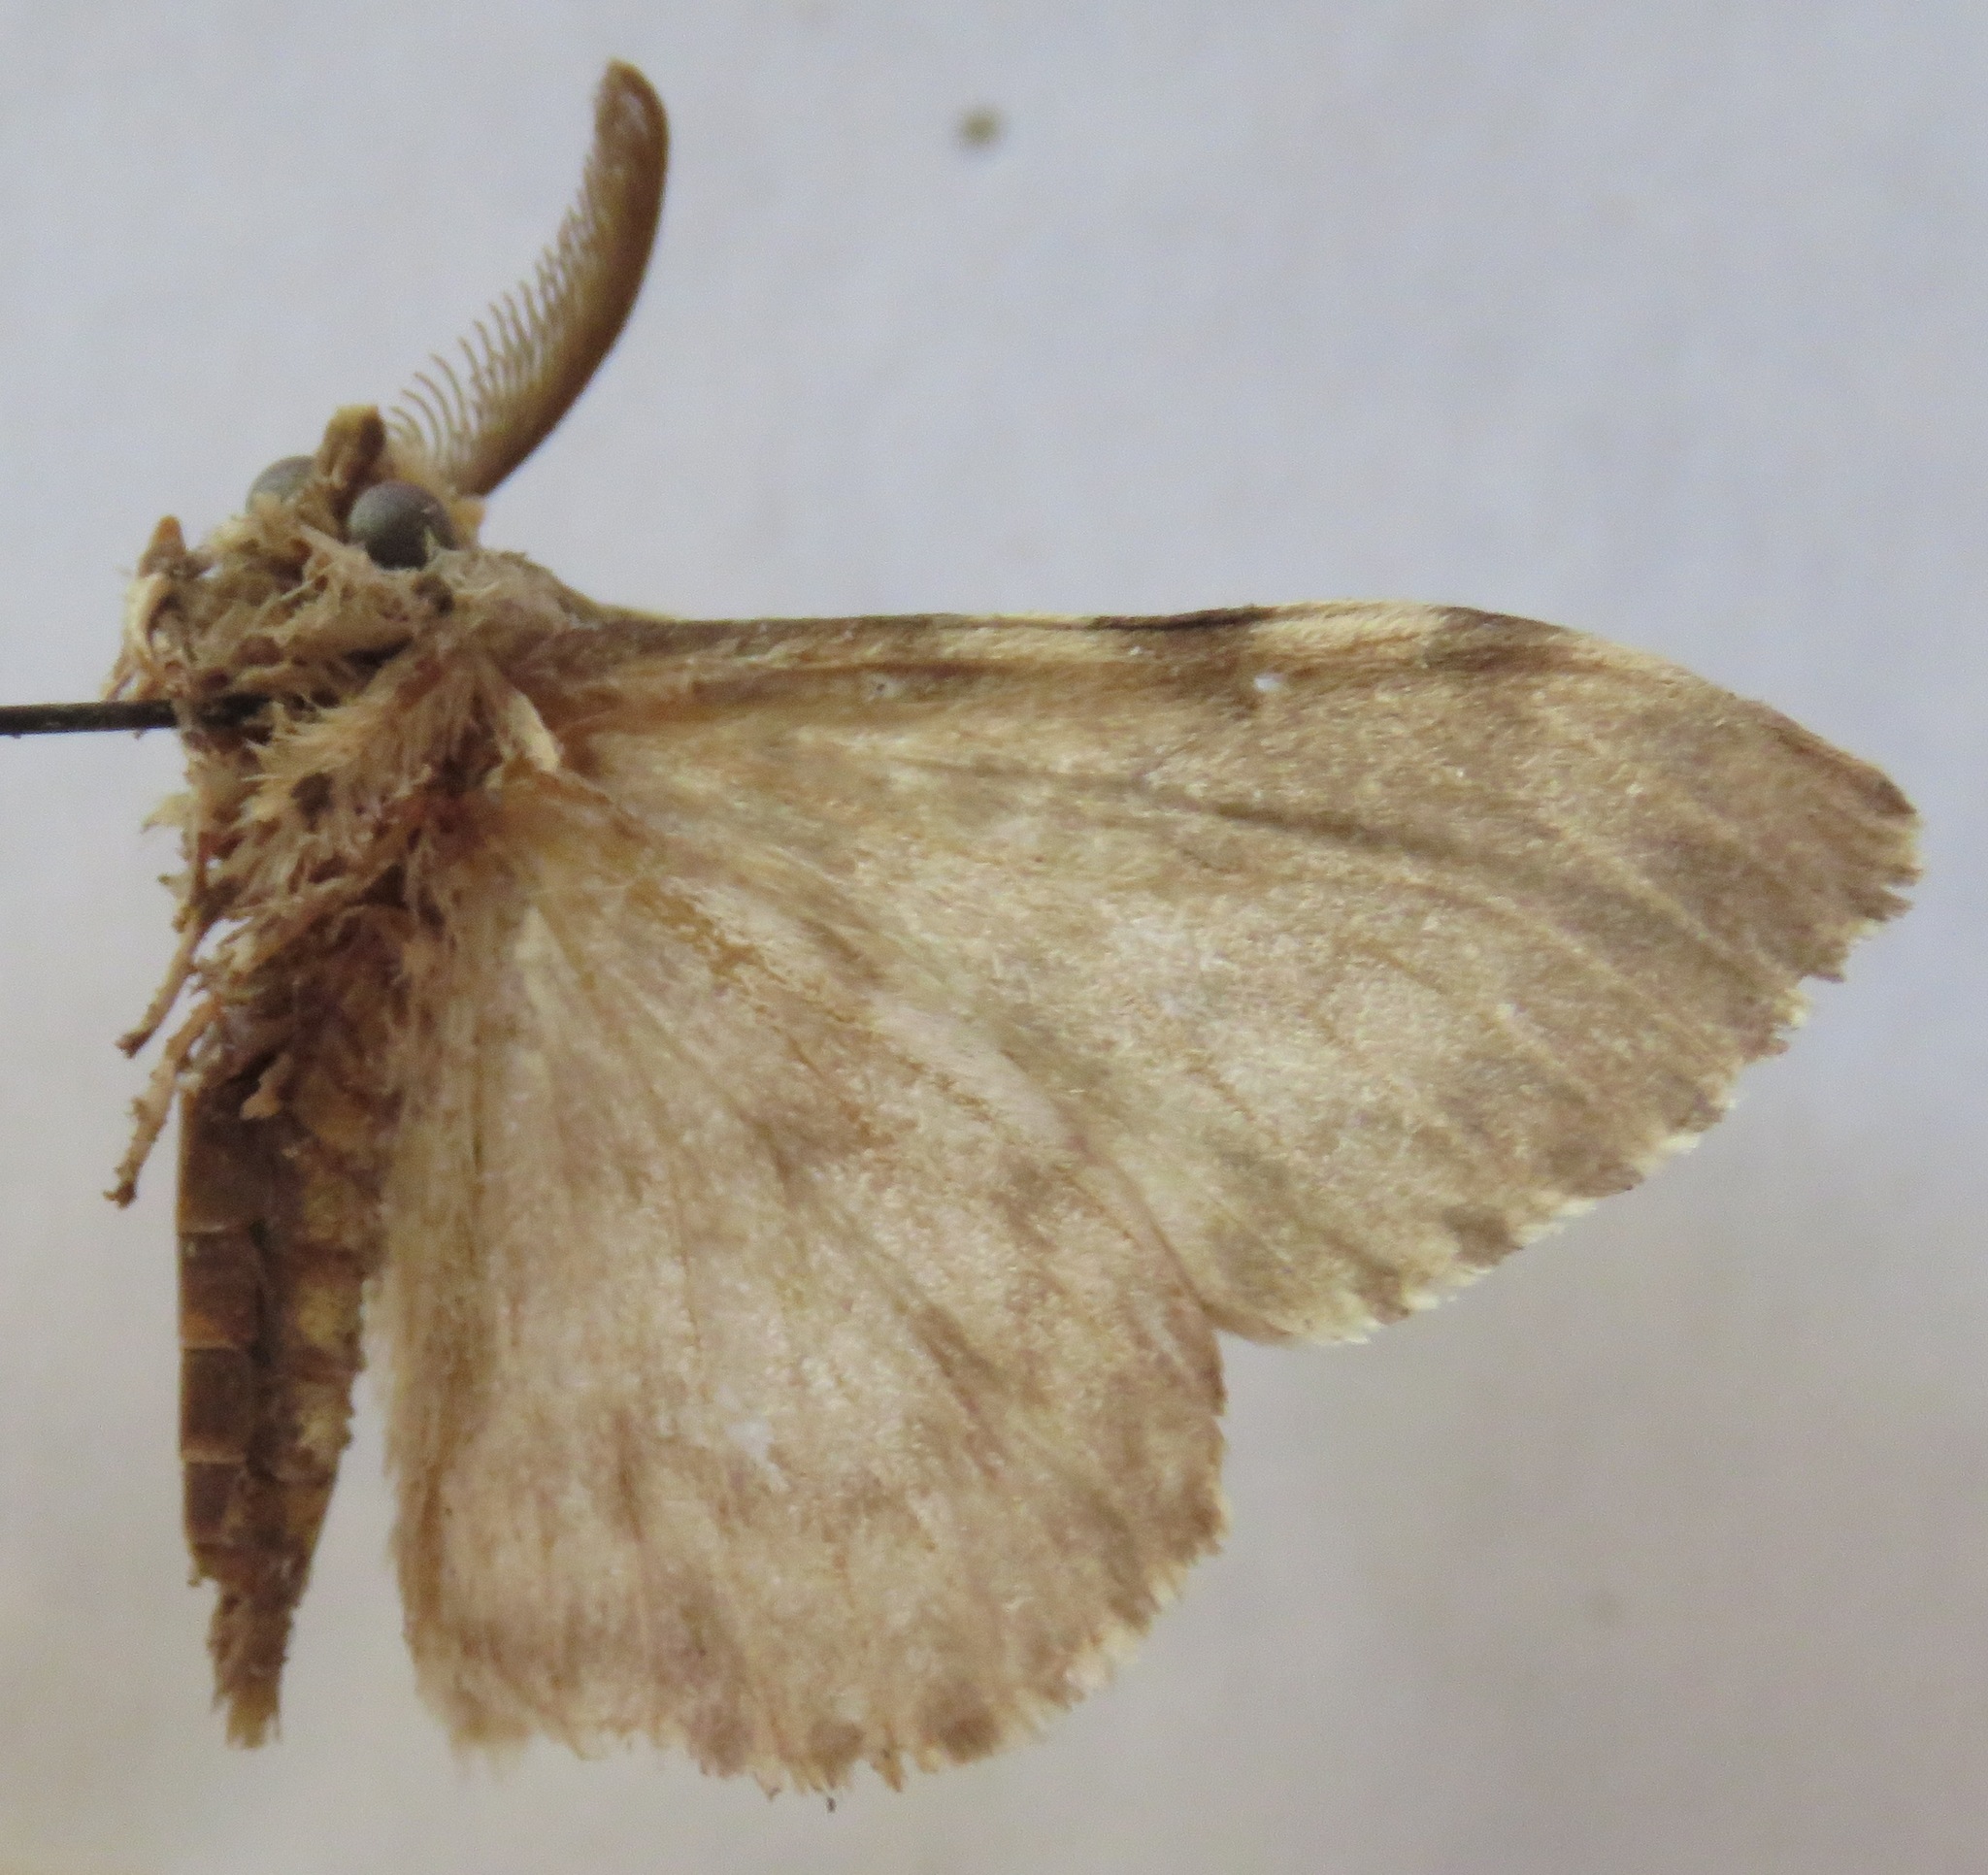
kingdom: Animalia
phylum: Arthropoda
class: Insecta
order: Lepidoptera
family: Erebidae
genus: Lymantria
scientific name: Lymantria monacha
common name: Black arches
